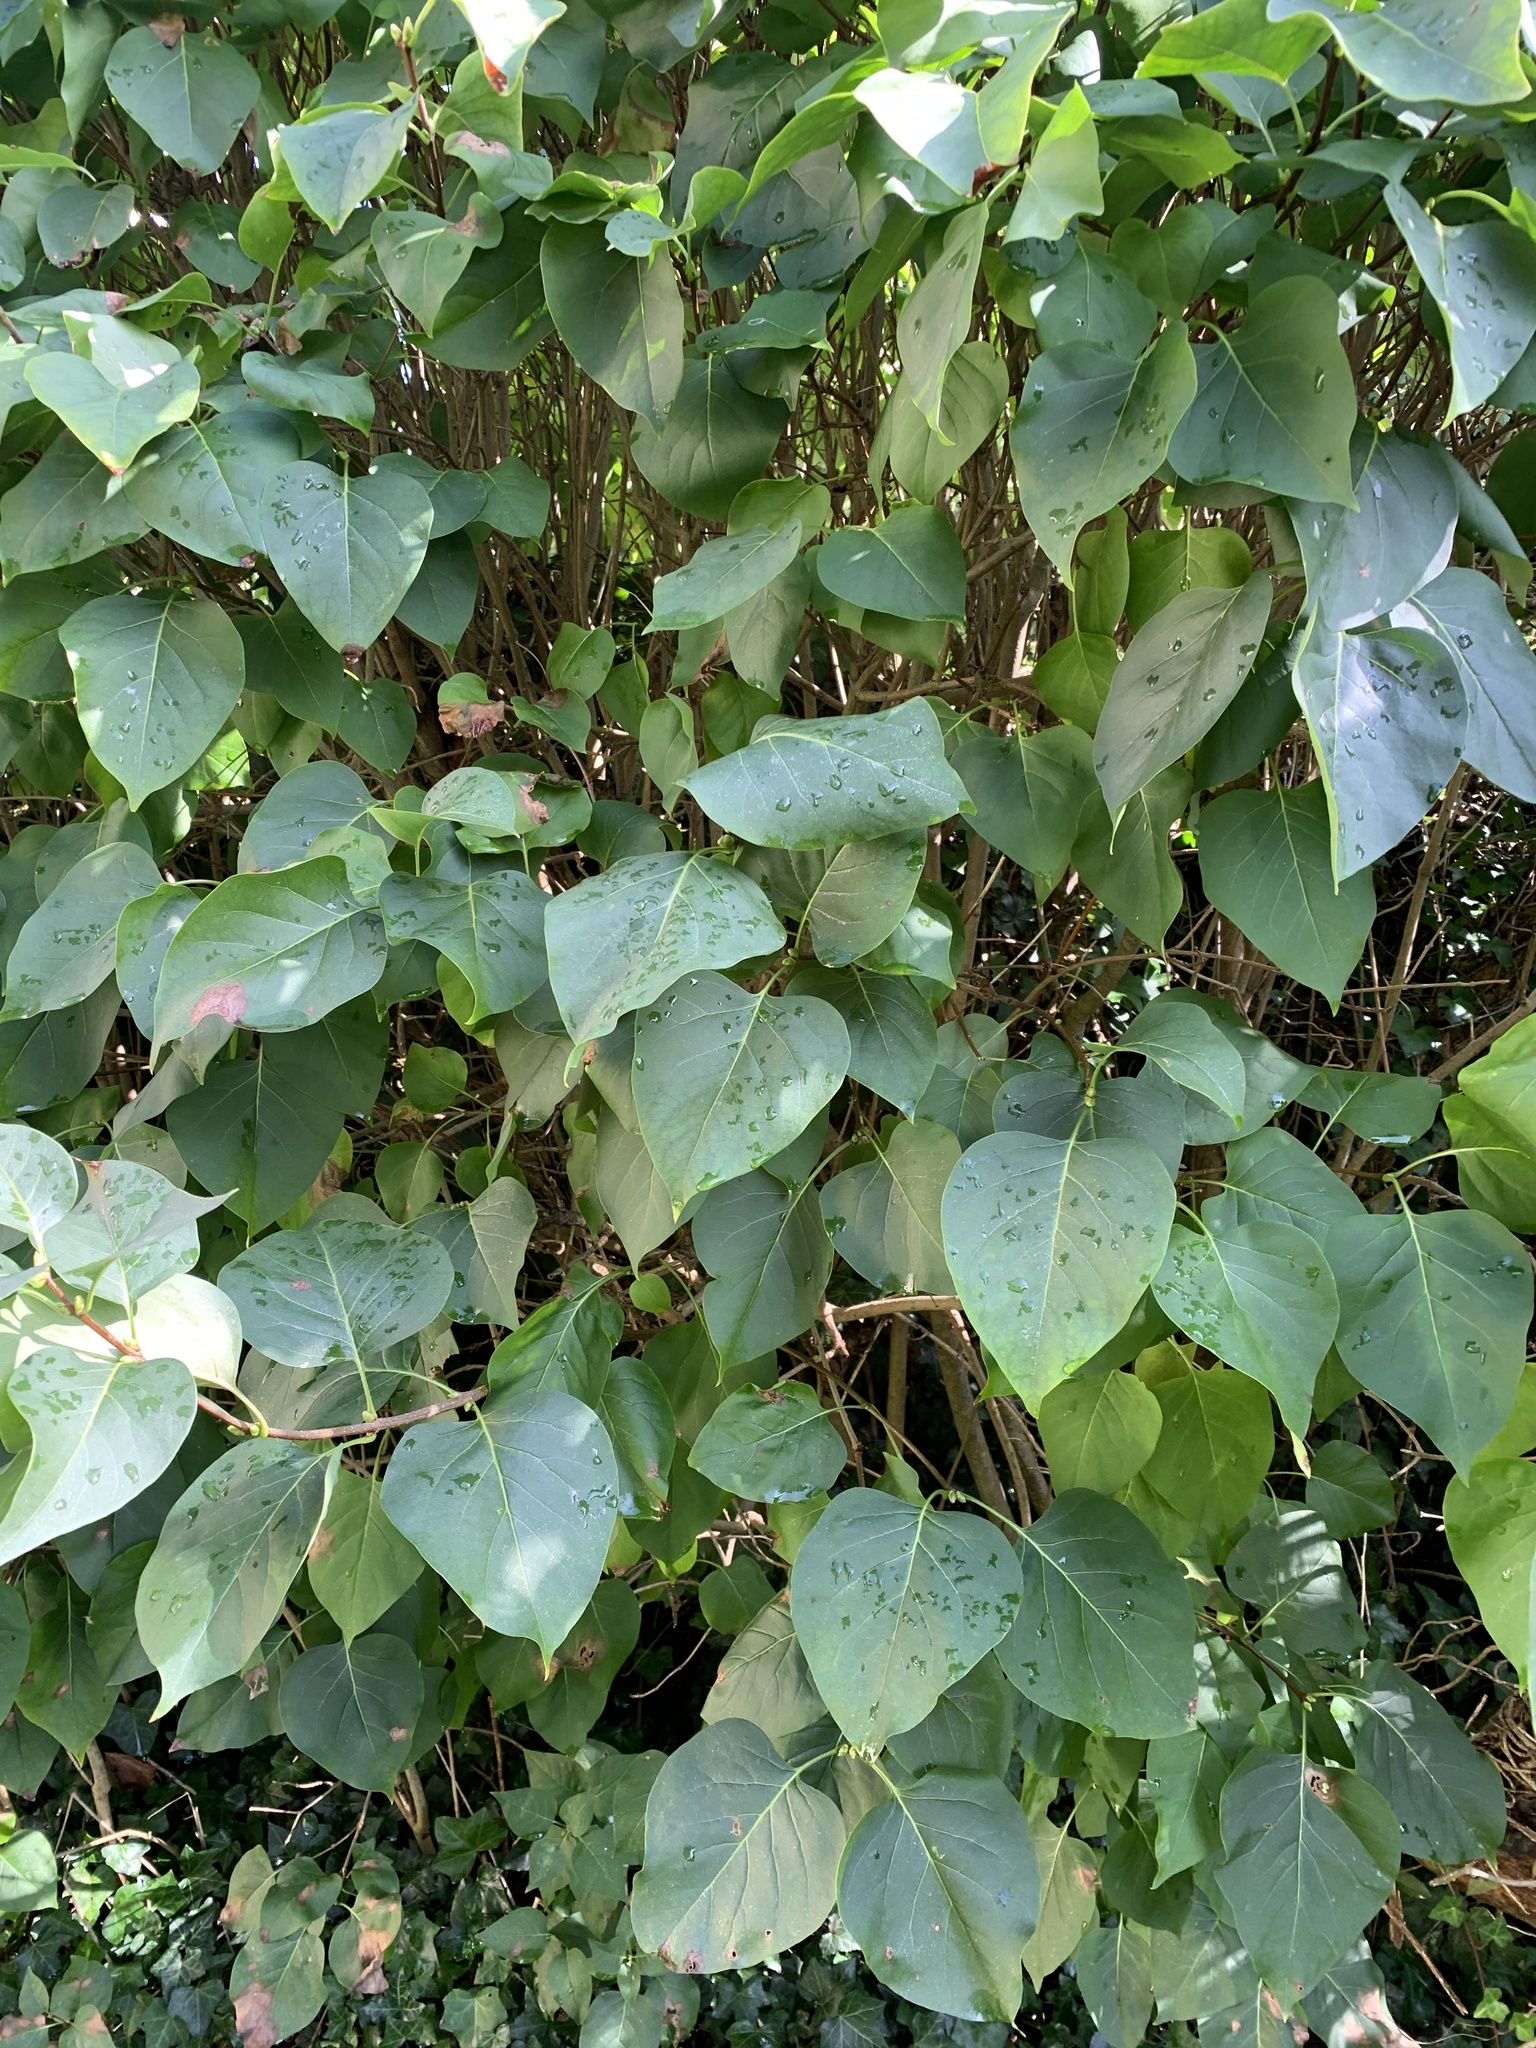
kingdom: Plantae
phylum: Tracheophyta
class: Magnoliopsida
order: Lamiales
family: Oleaceae
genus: Syringa
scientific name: Syringa vulgaris
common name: Common lilac
